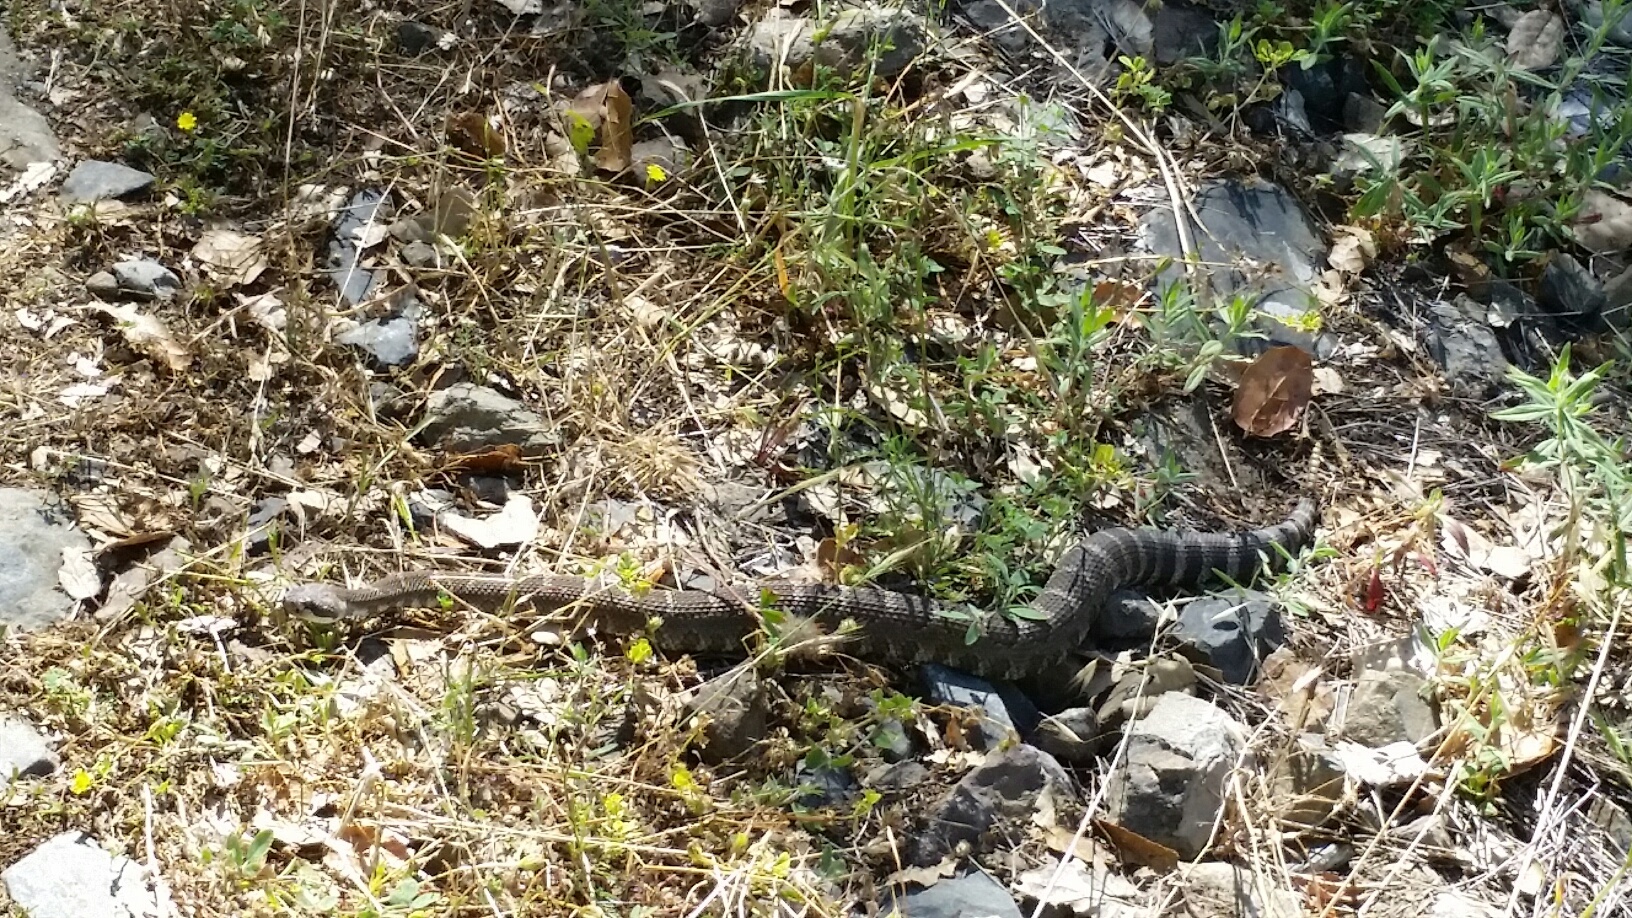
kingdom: Animalia
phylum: Chordata
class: Squamata
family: Viperidae
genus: Crotalus
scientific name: Crotalus oreganus
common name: Abyssus
